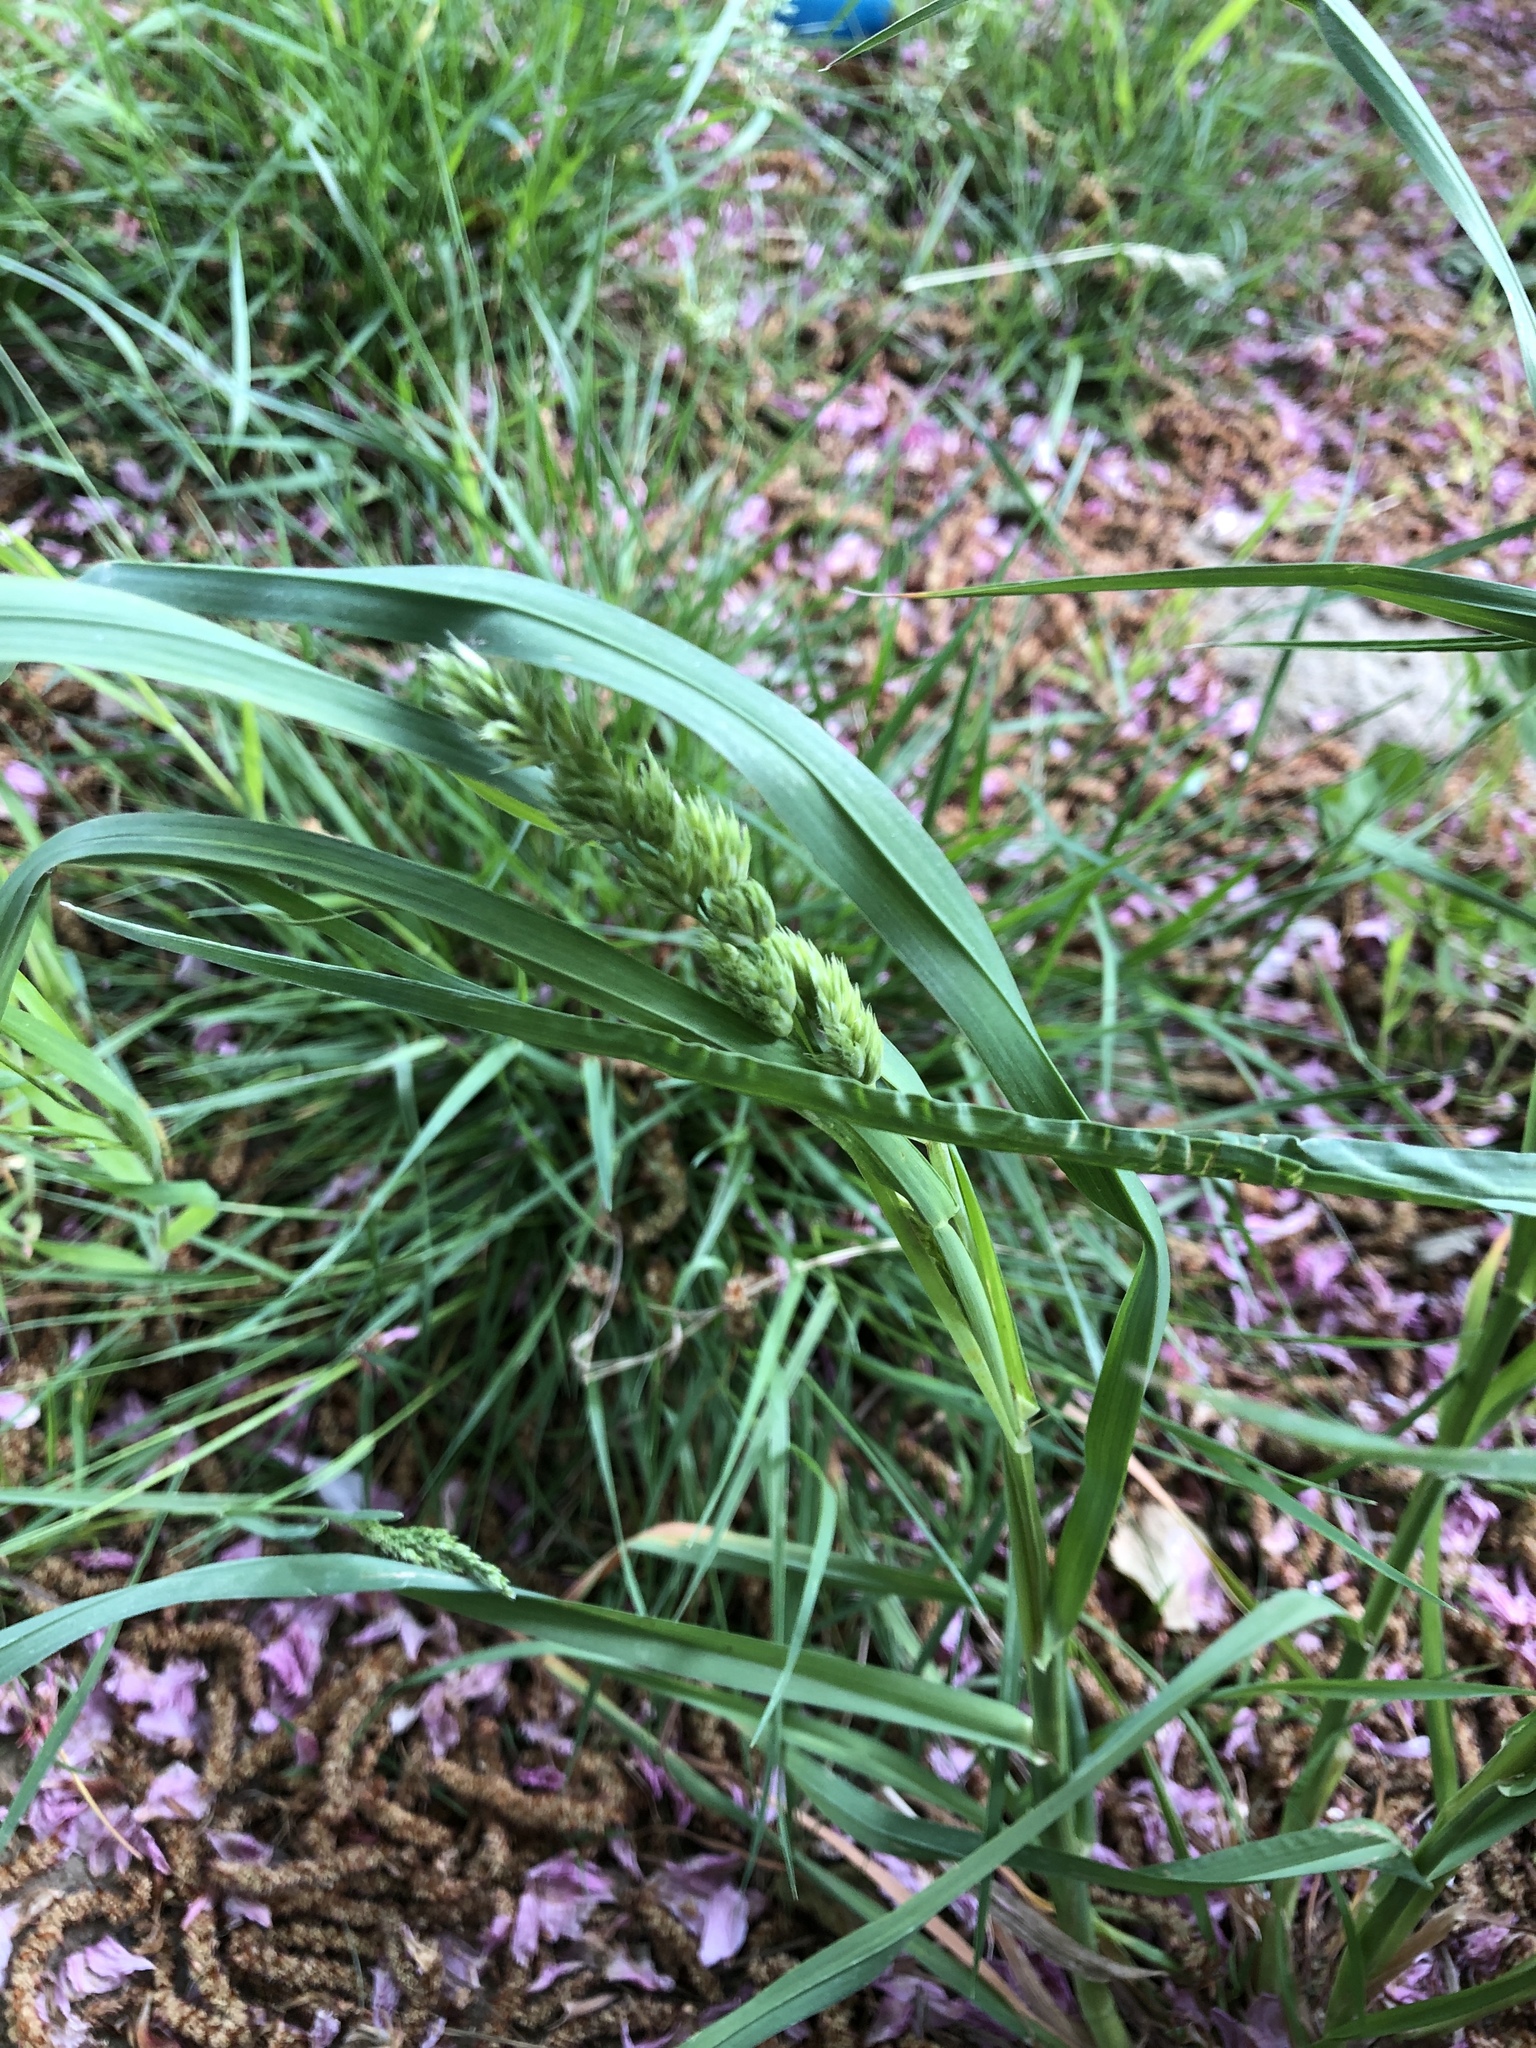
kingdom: Plantae
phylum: Tracheophyta
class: Liliopsida
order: Poales
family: Poaceae
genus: Dactylis
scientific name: Dactylis glomerata
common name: Orchardgrass
